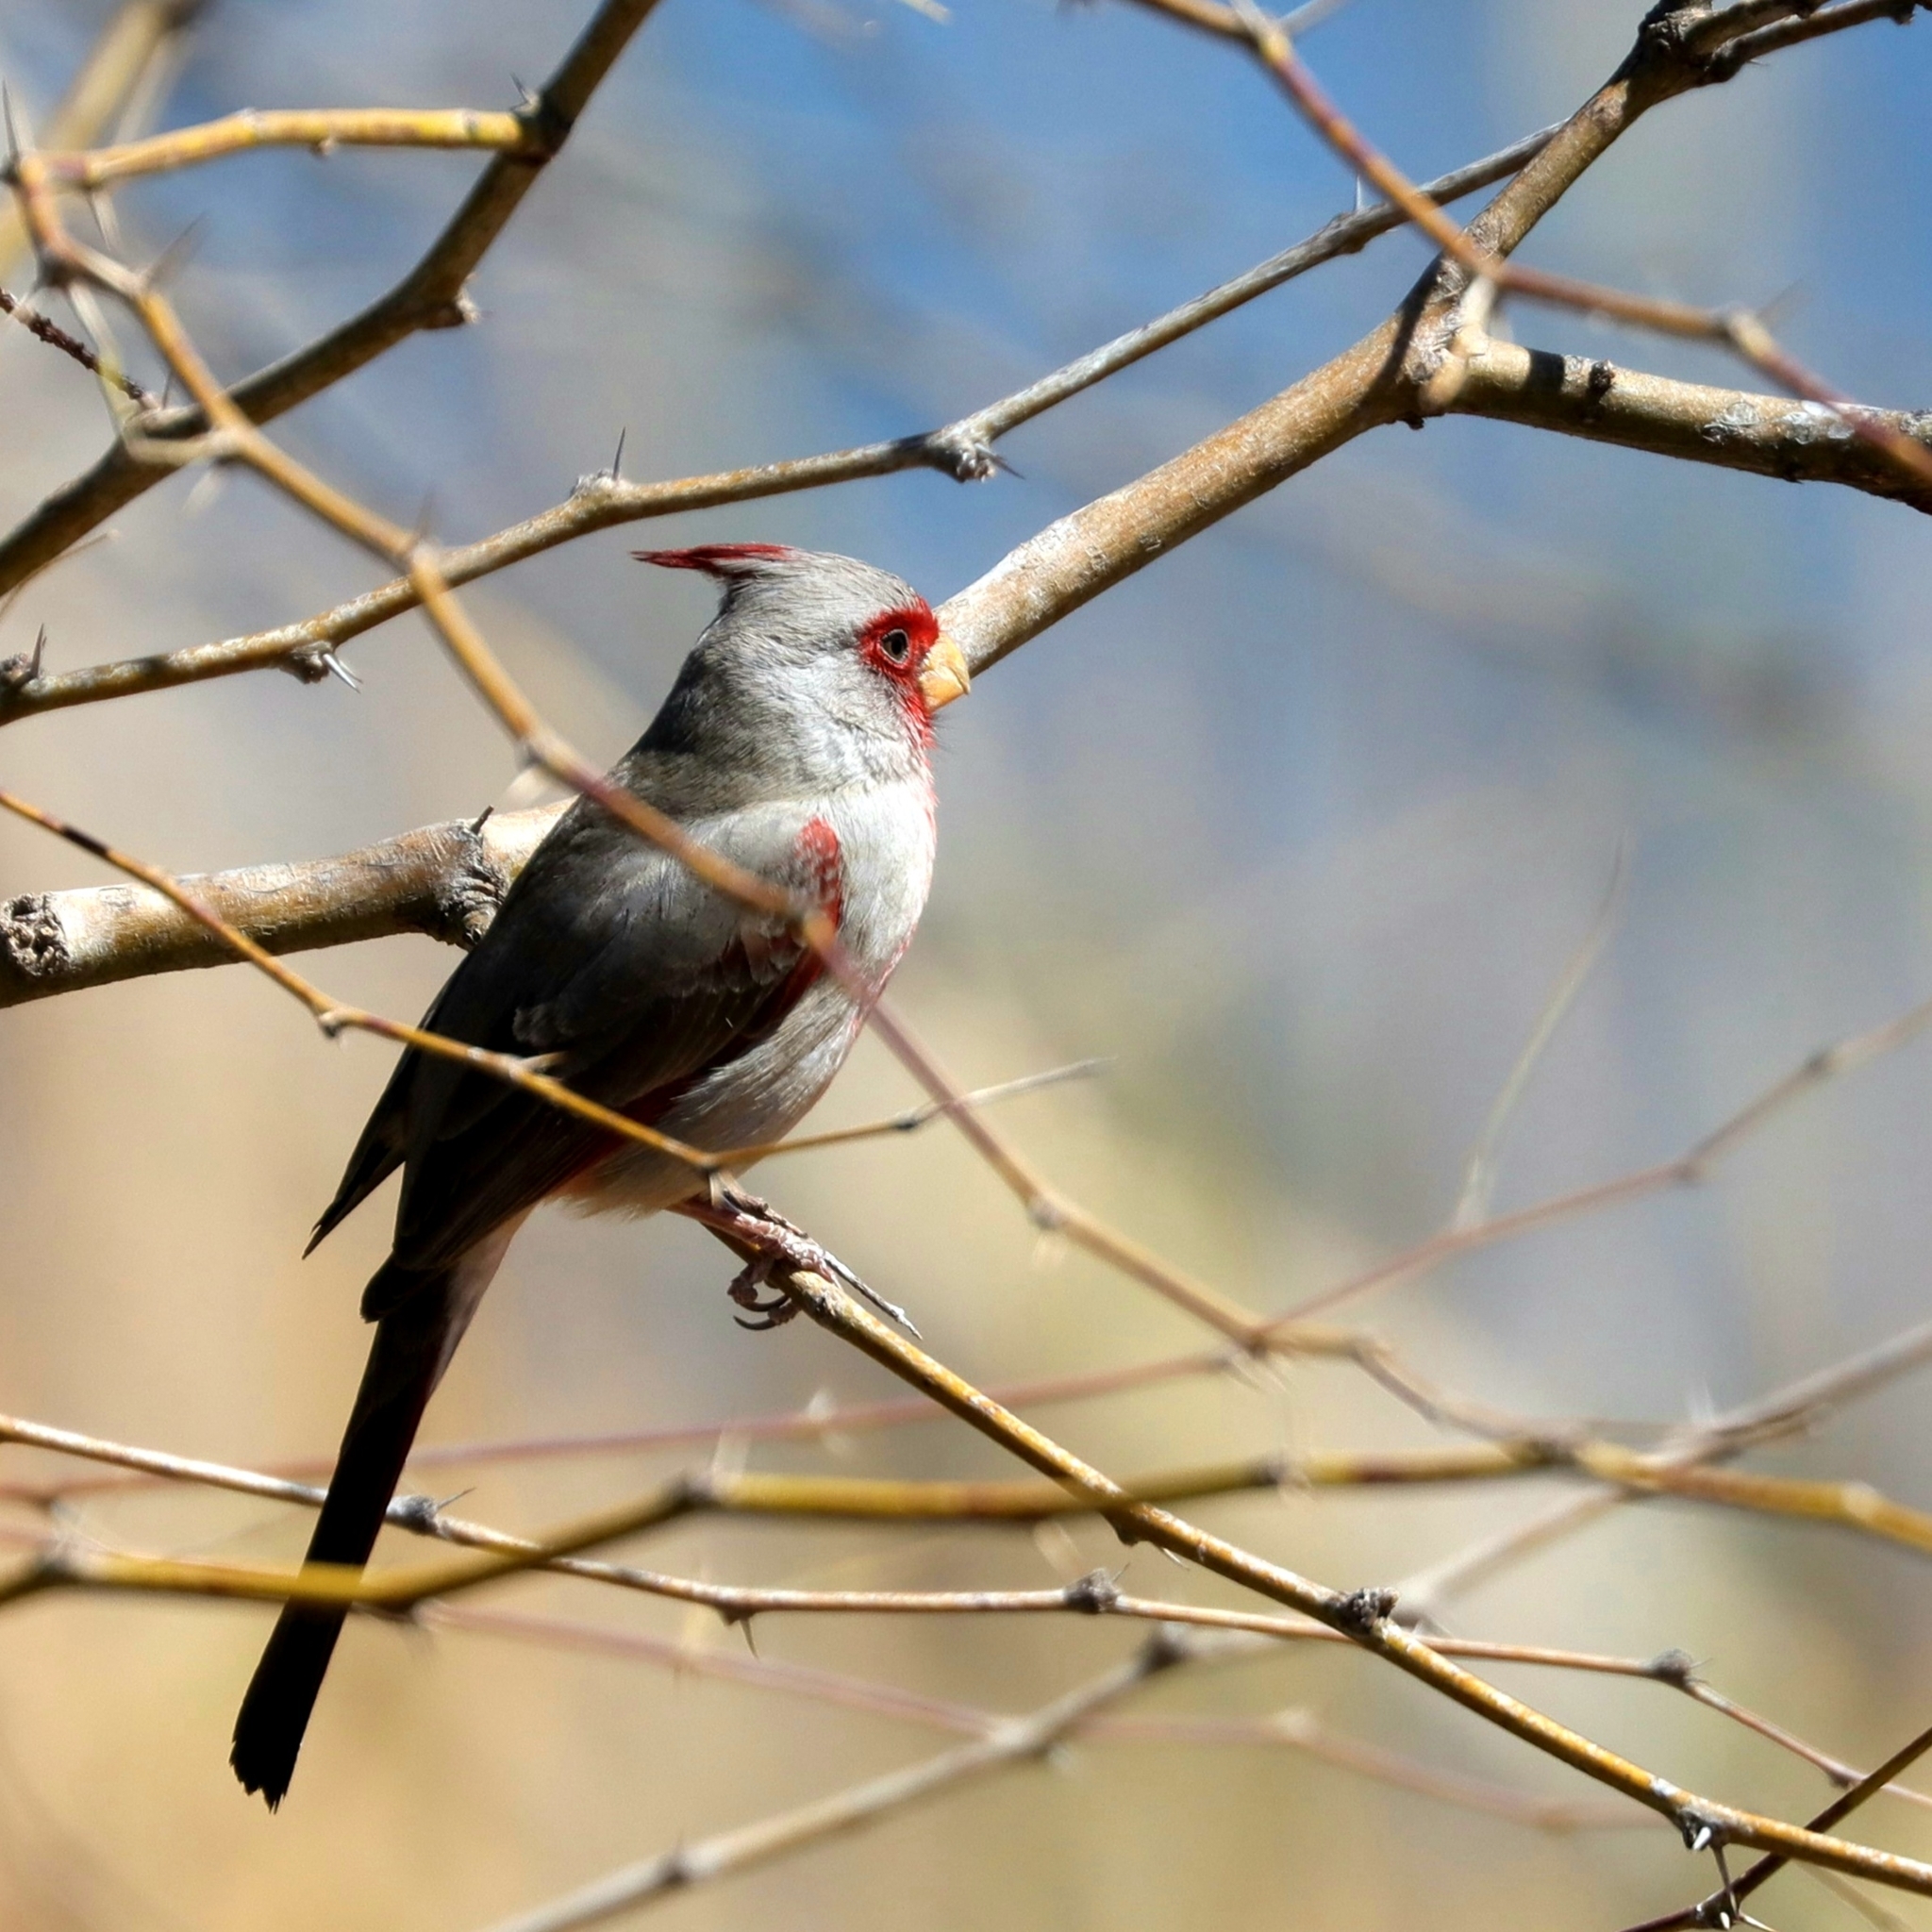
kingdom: Animalia
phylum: Chordata
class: Aves
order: Passeriformes
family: Cardinalidae
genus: Cardinalis
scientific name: Cardinalis sinuatus
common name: Pyrrhuloxia
